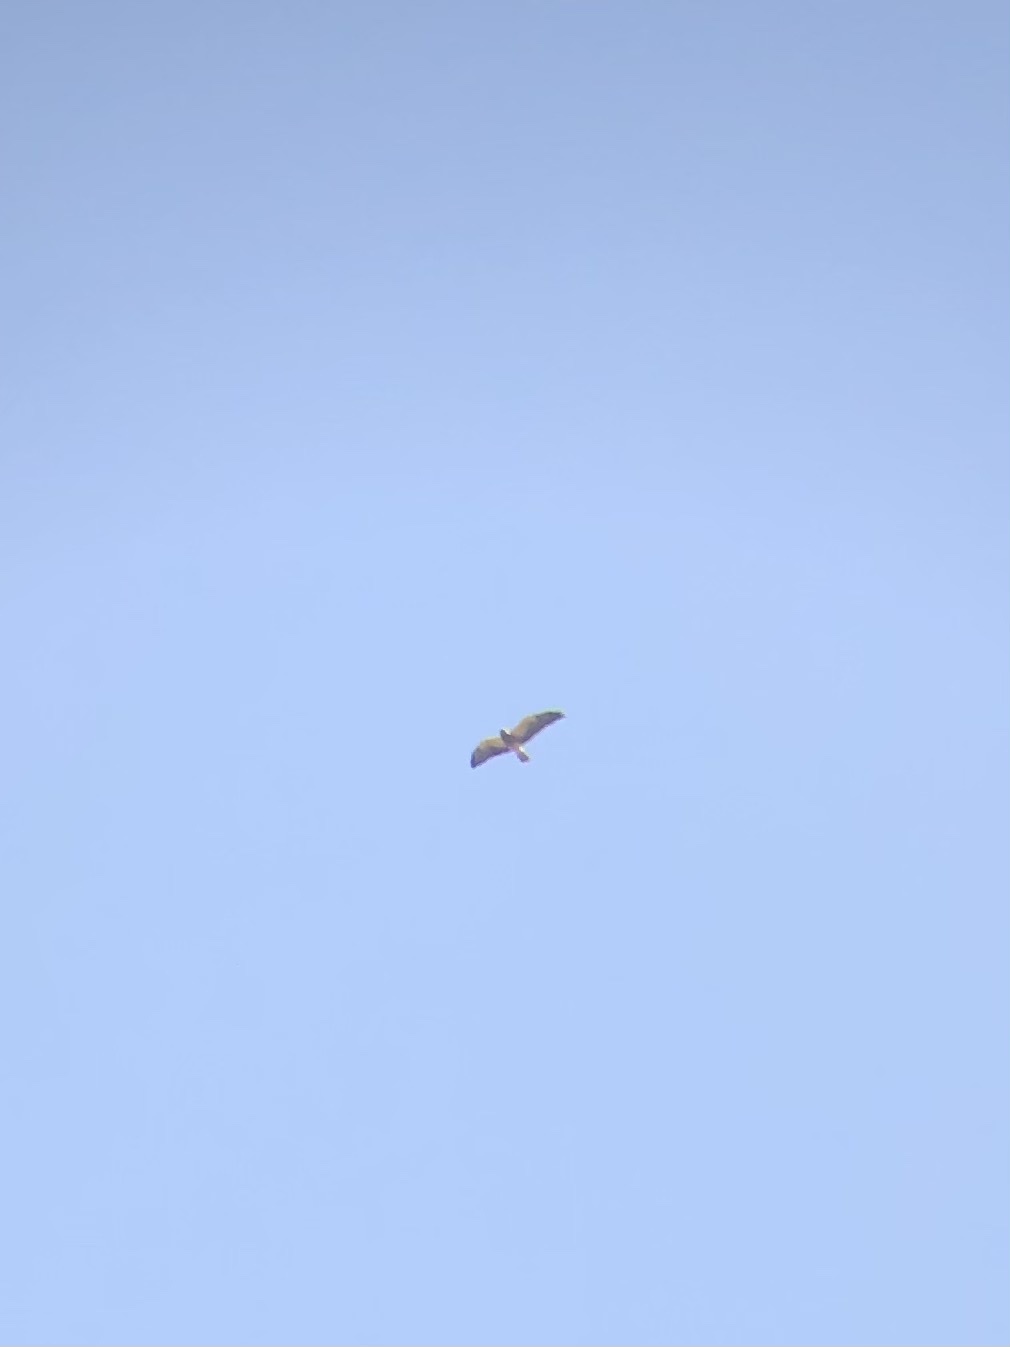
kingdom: Animalia
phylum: Chordata
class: Aves
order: Accipitriformes
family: Accipitridae
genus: Buteo
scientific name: Buteo swainsoni
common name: Swainson's hawk
